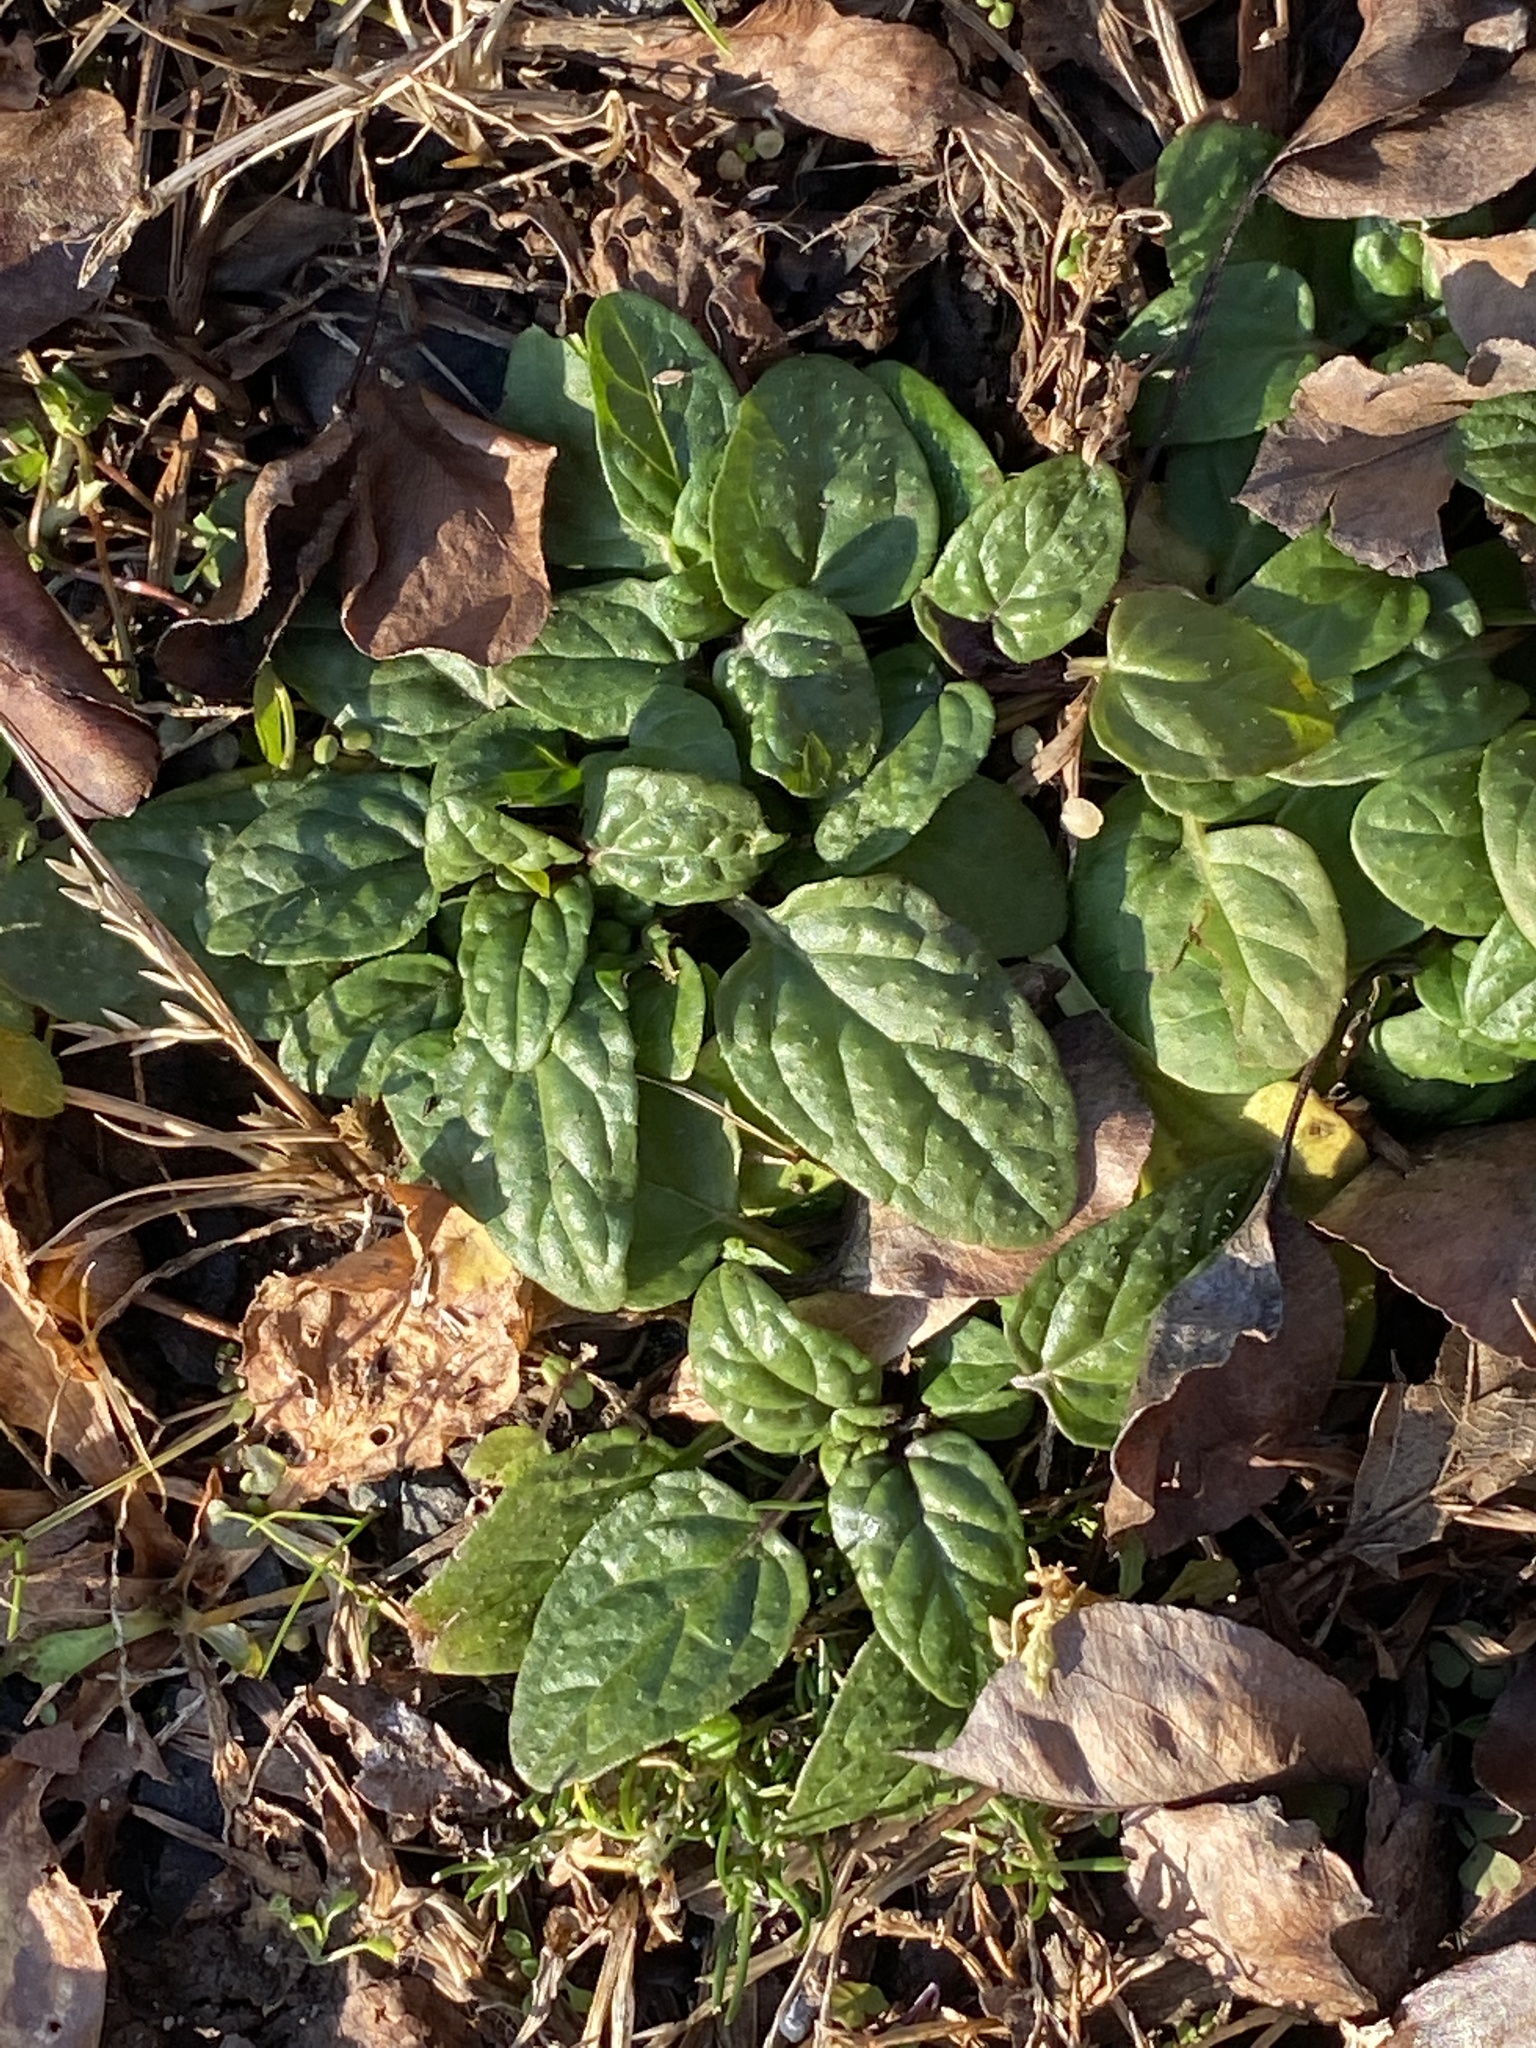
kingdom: Plantae
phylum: Tracheophyta
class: Magnoliopsida
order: Lamiales
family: Lamiaceae
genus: Prunella
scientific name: Prunella vulgaris
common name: Heal-all
